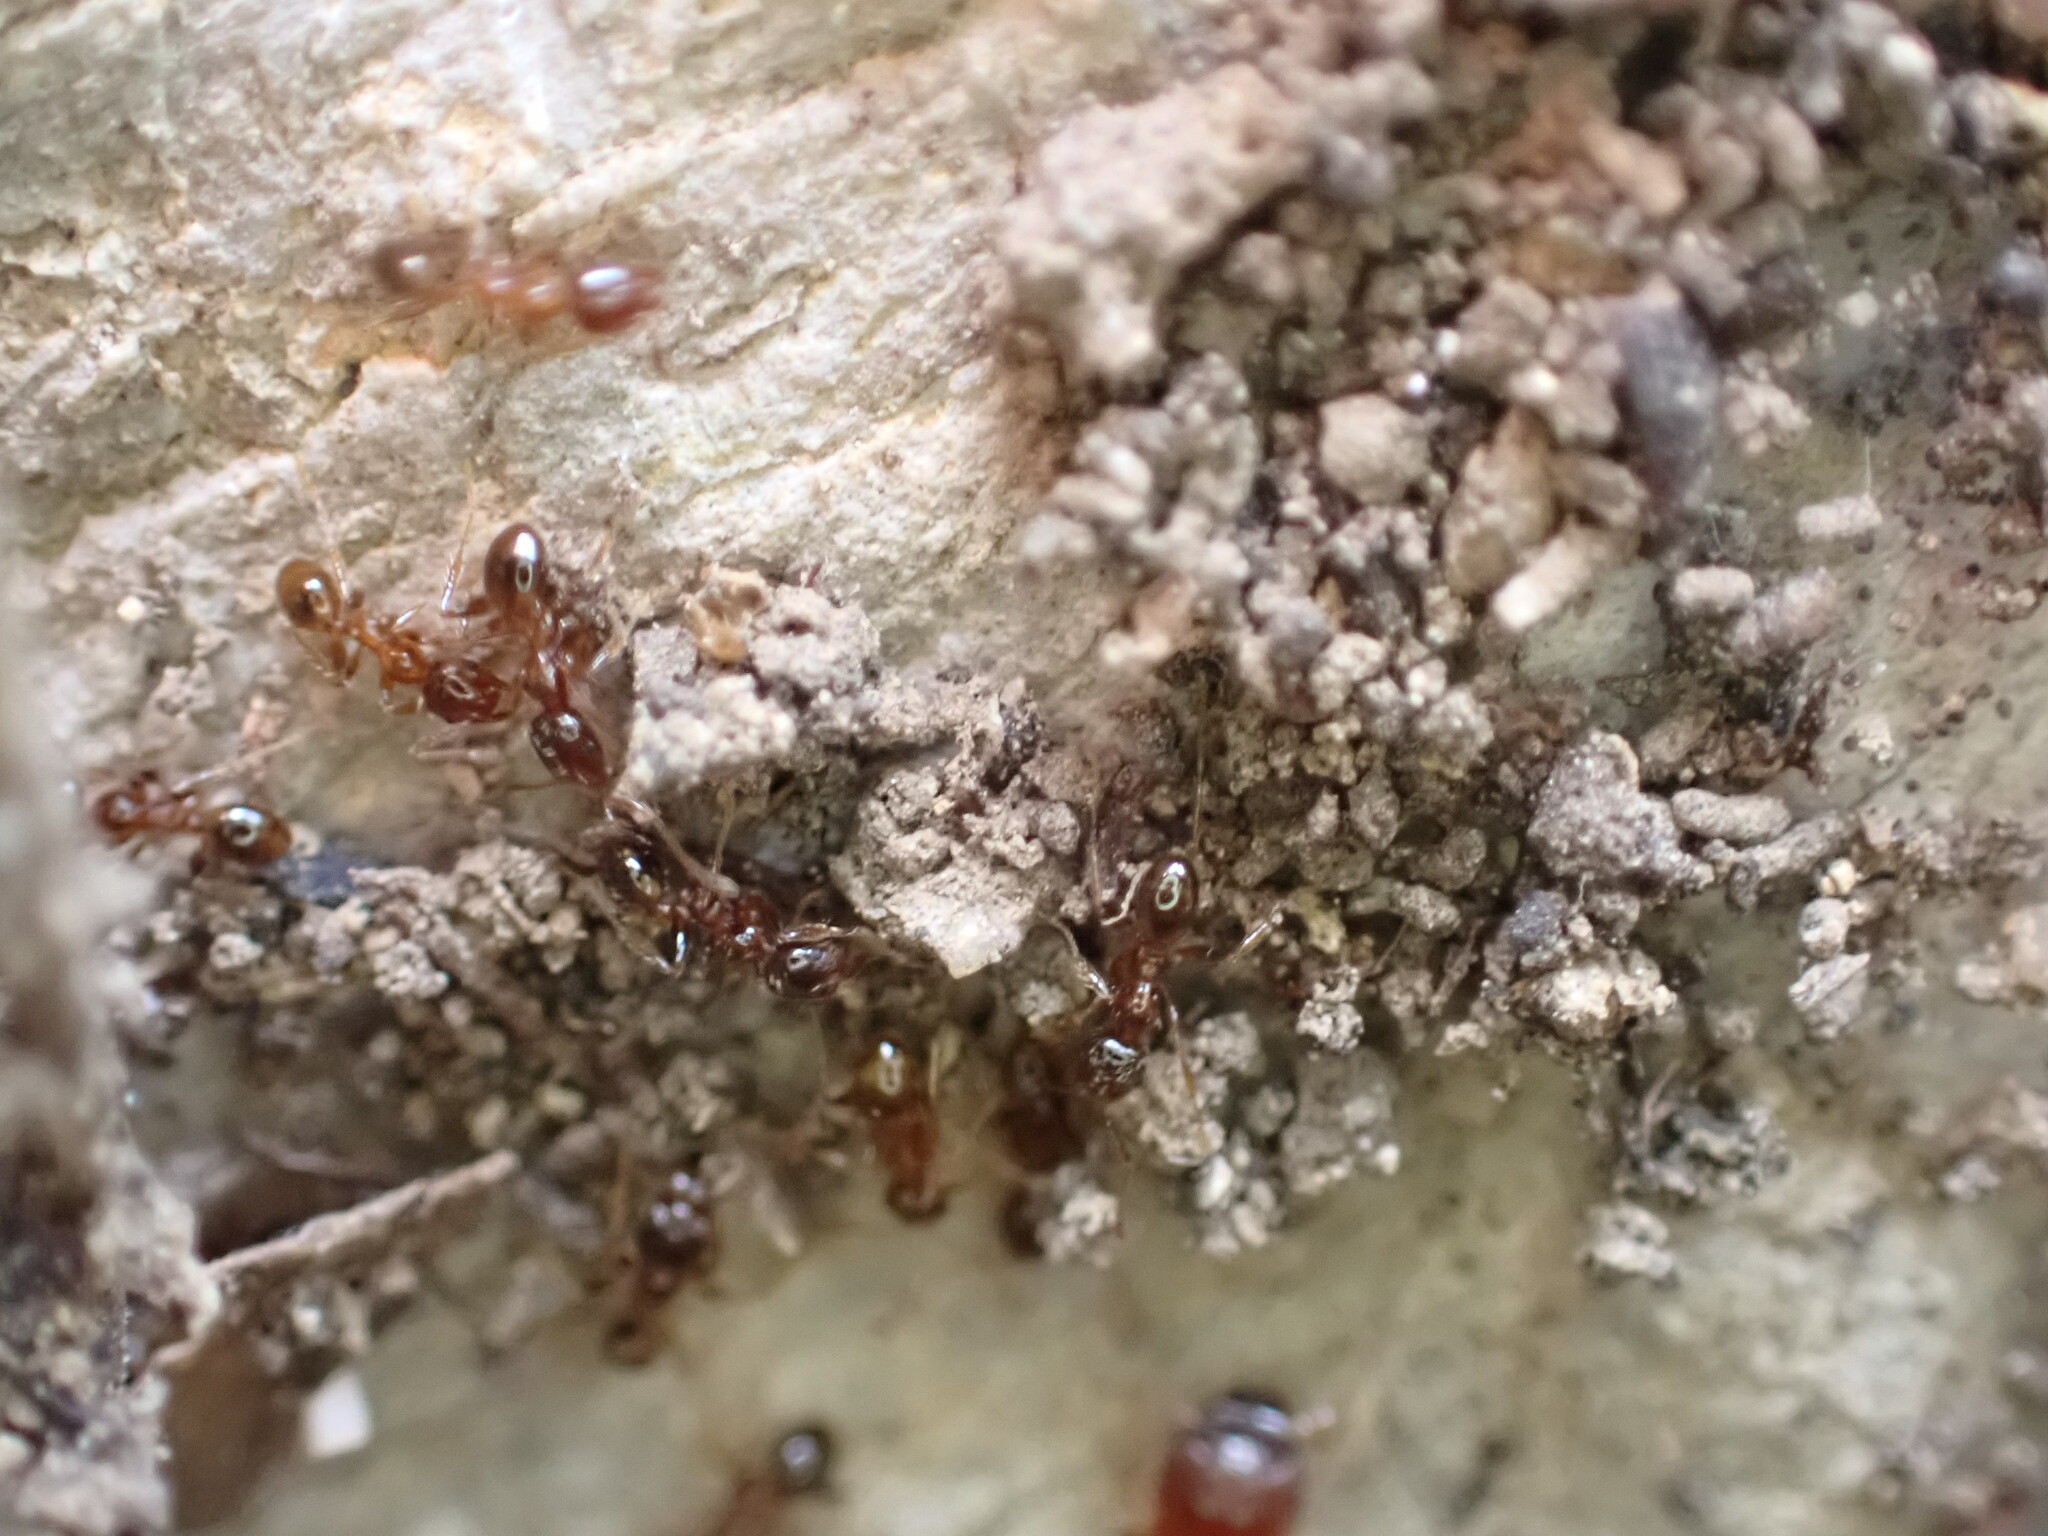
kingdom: Animalia
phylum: Arthropoda
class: Insecta
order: Hymenoptera
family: Formicidae
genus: Pheidole
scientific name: Pheidole pallidula
